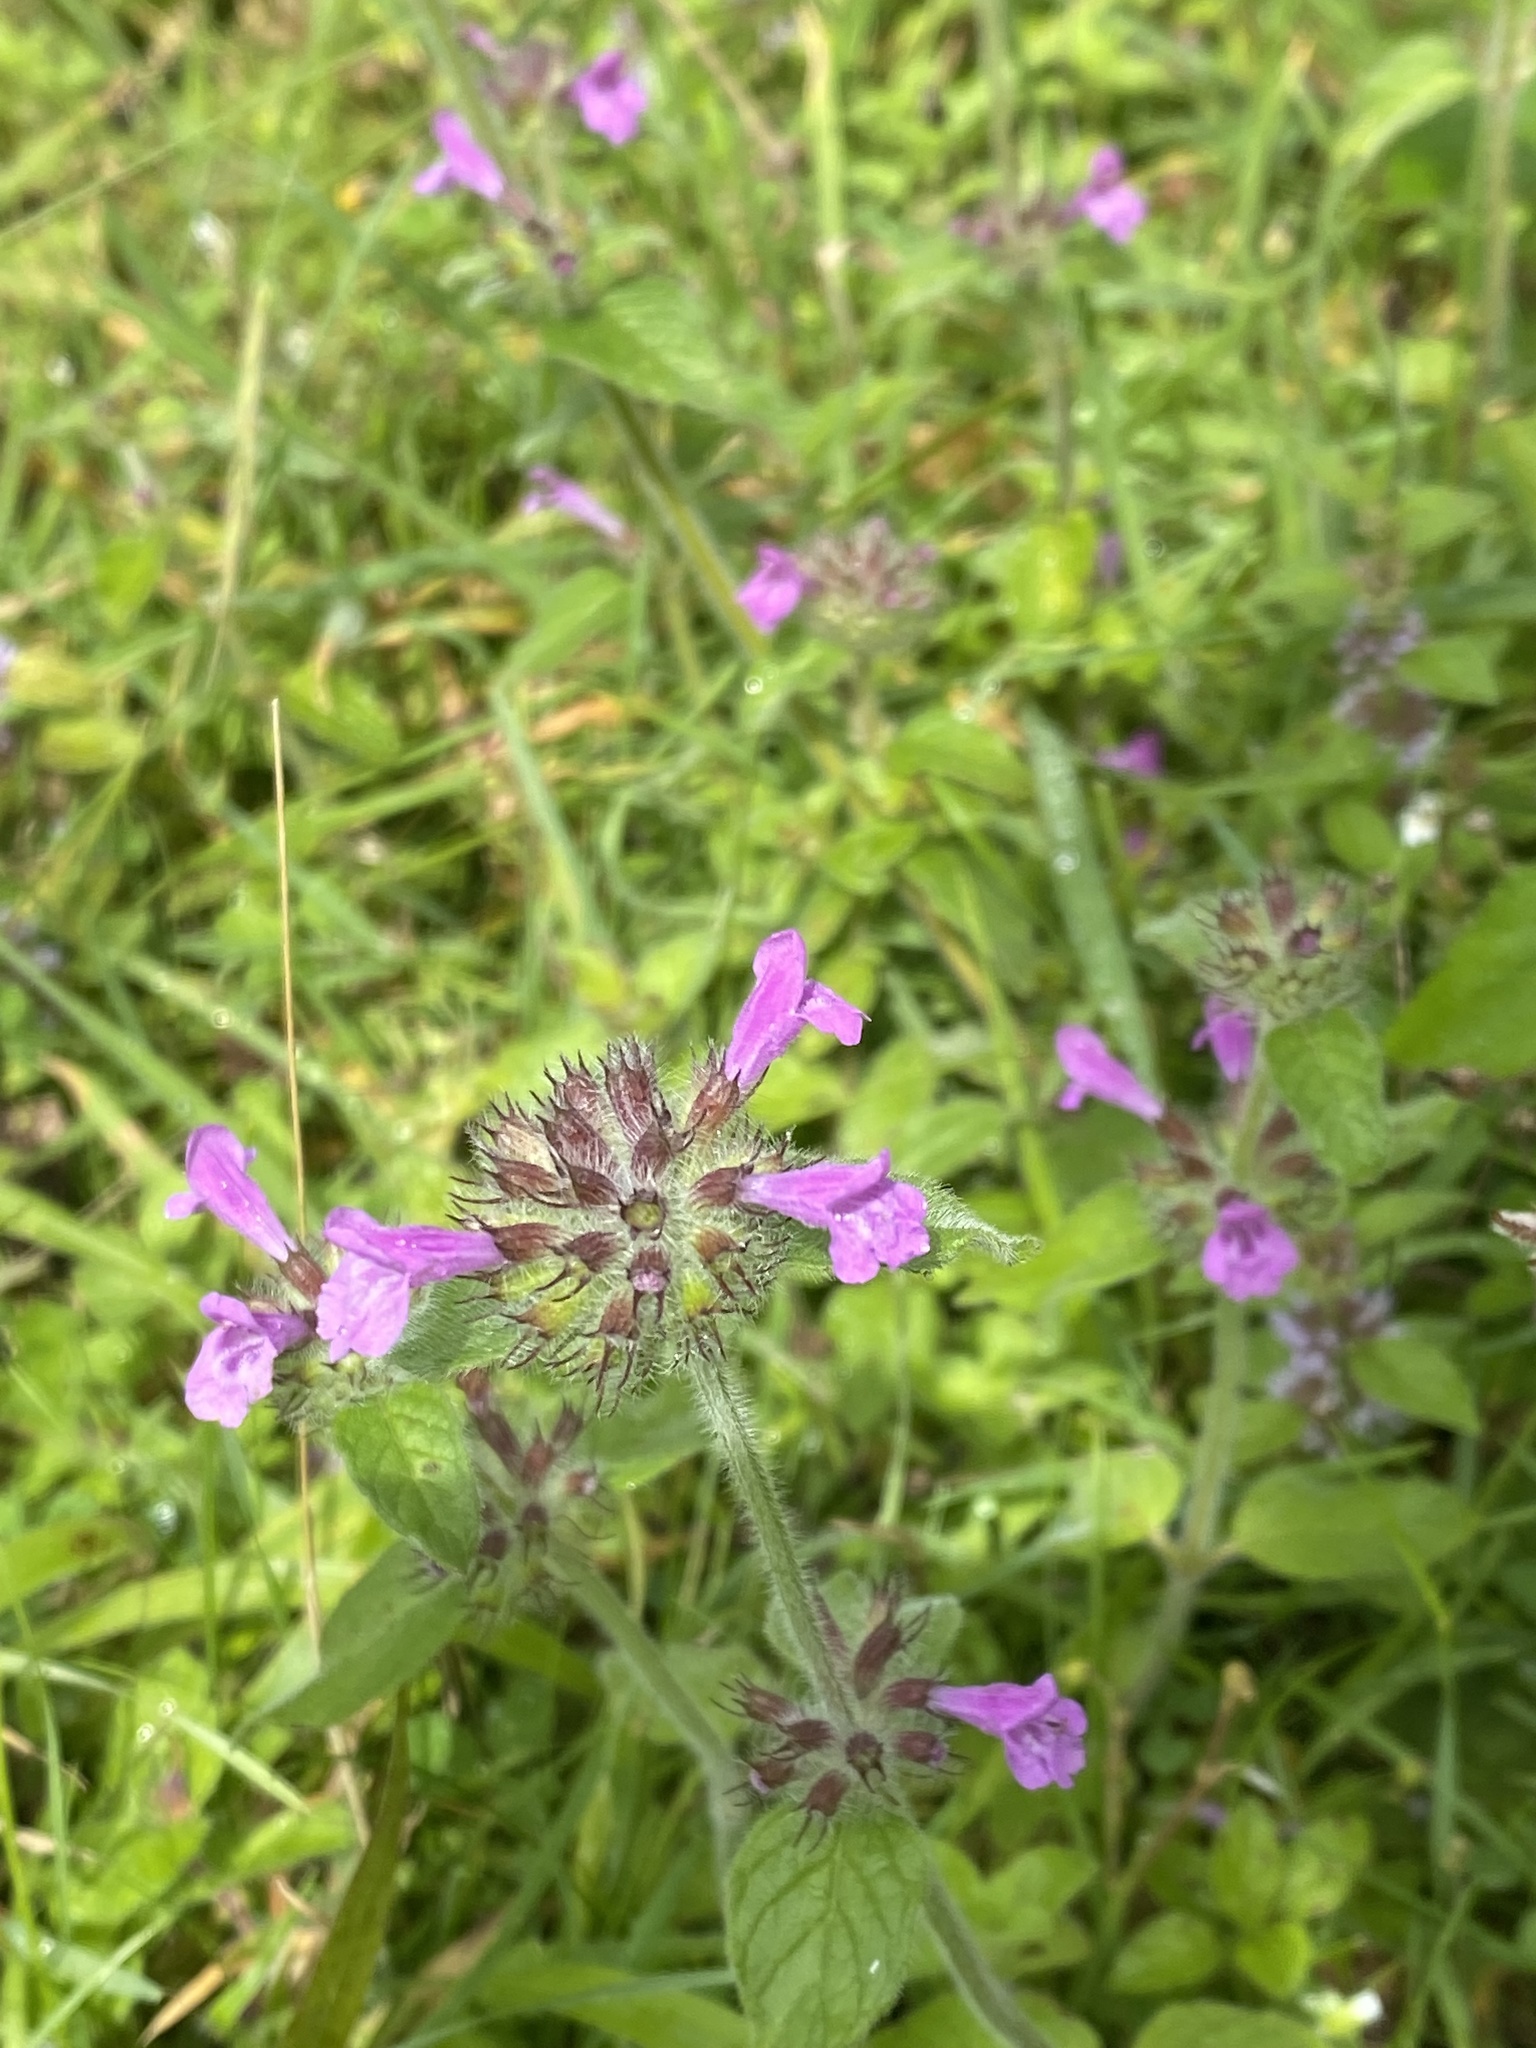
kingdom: Plantae
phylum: Tracheophyta
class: Magnoliopsida
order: Lamiales
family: Lamiaceae
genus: Clinopodium
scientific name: Clinopodium vulgare
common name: Wild basil
